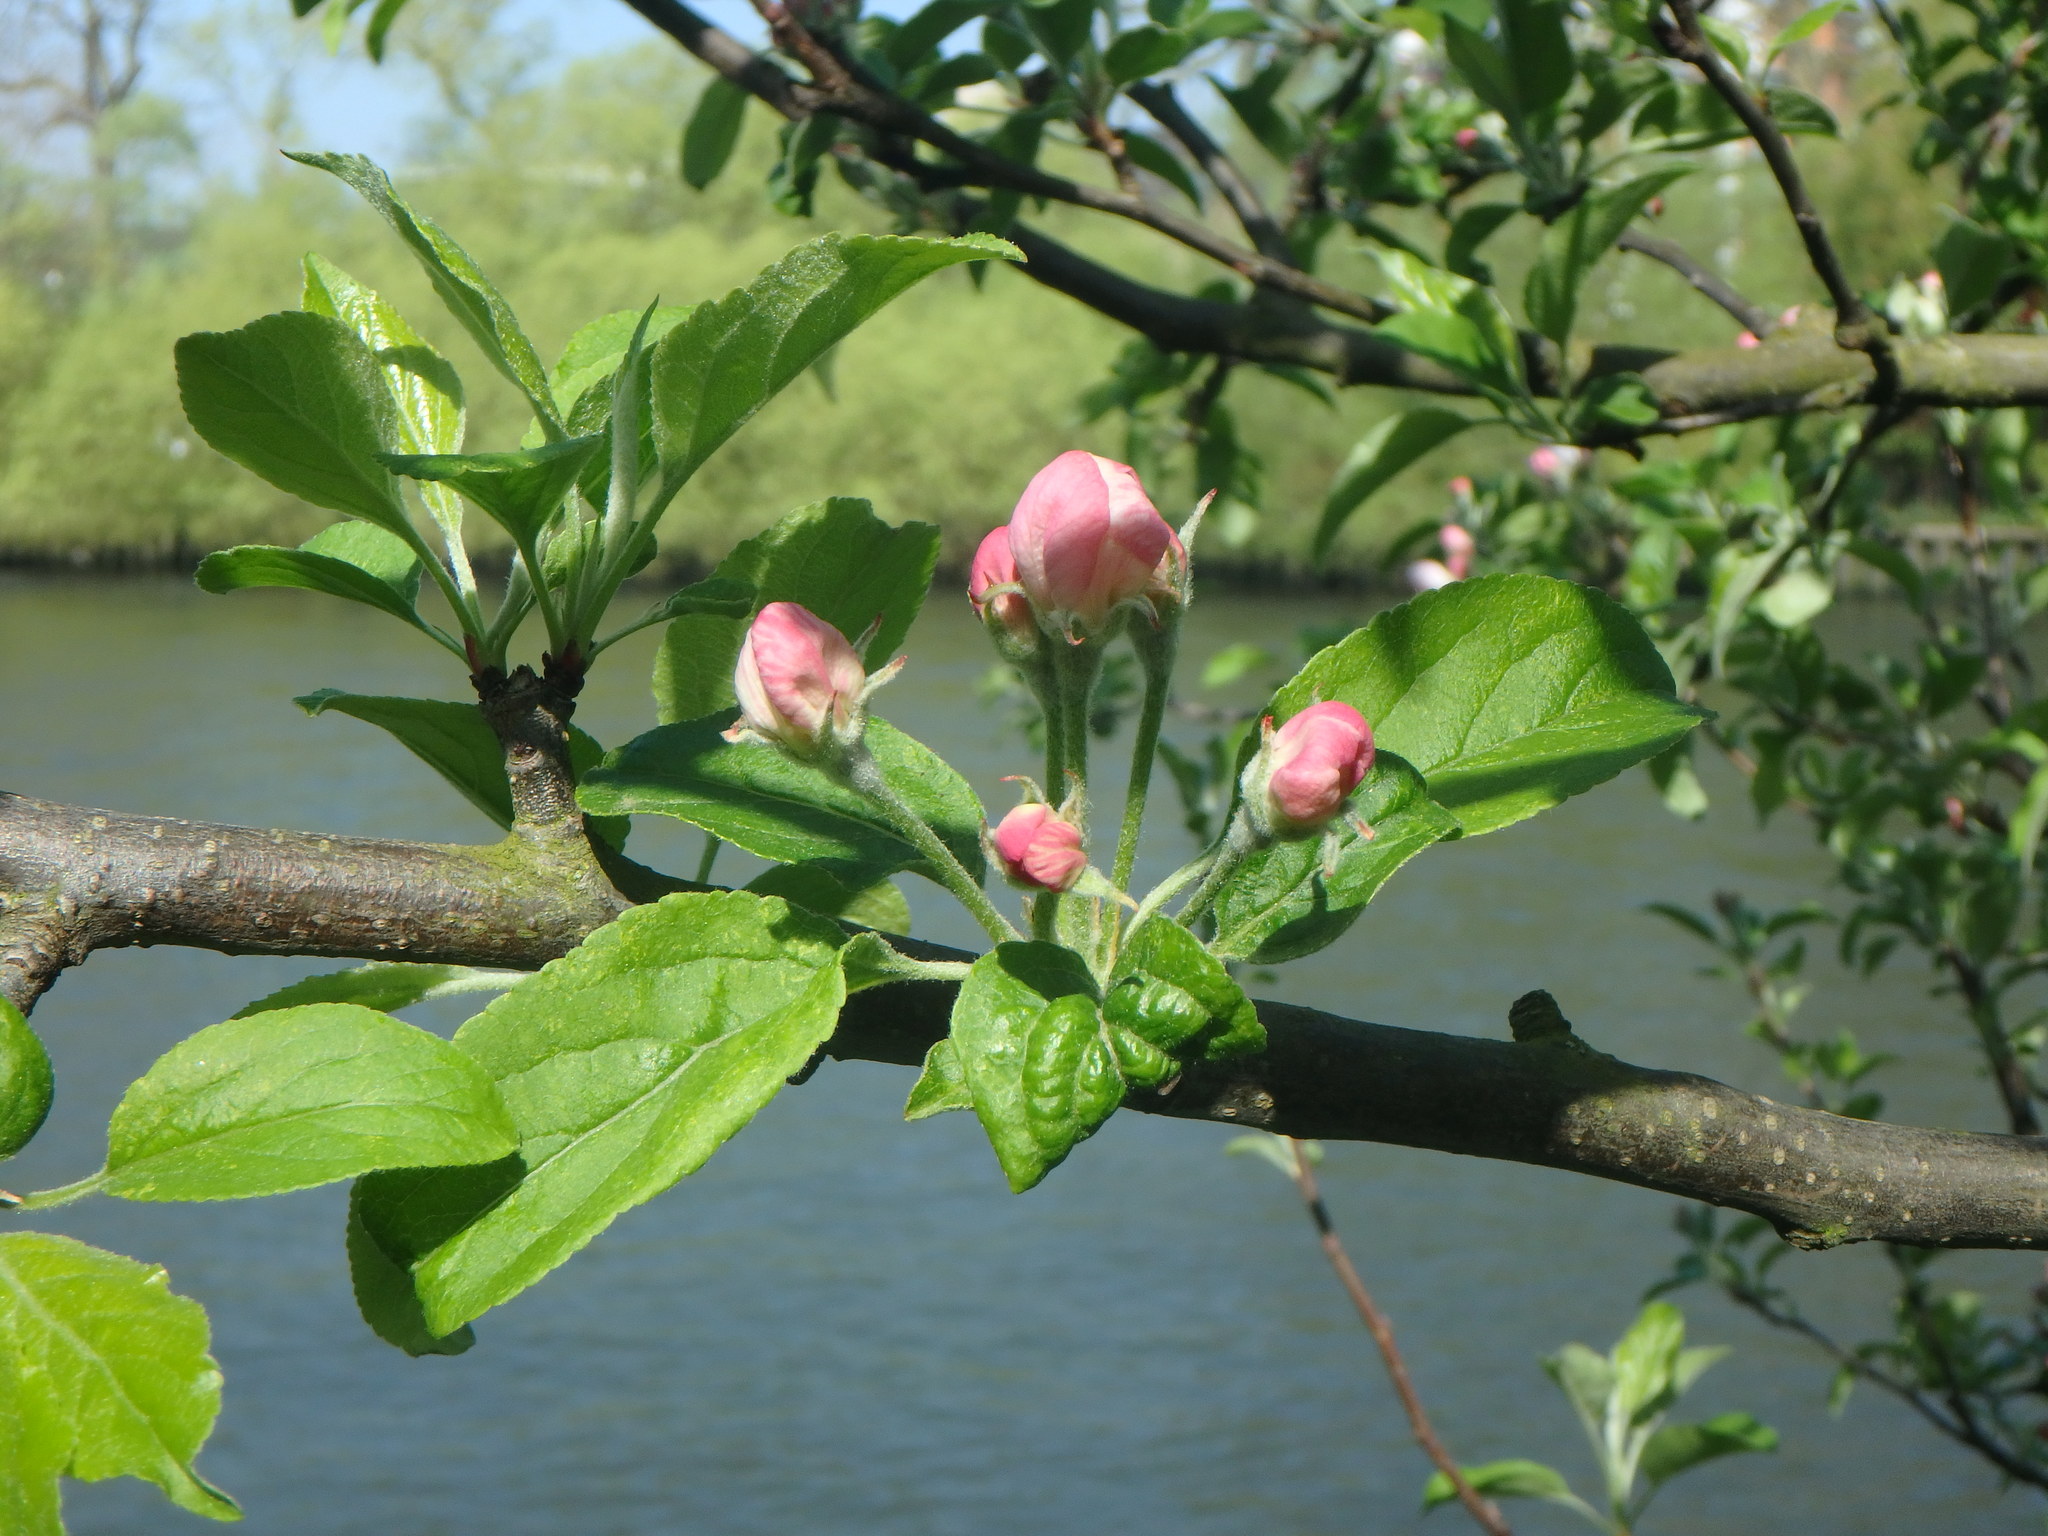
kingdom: Plantae
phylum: Tracheophyta
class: Magnoliopsida
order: Rosales
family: Rosaceae
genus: Malus
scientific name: Malus domestica
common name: Apple
